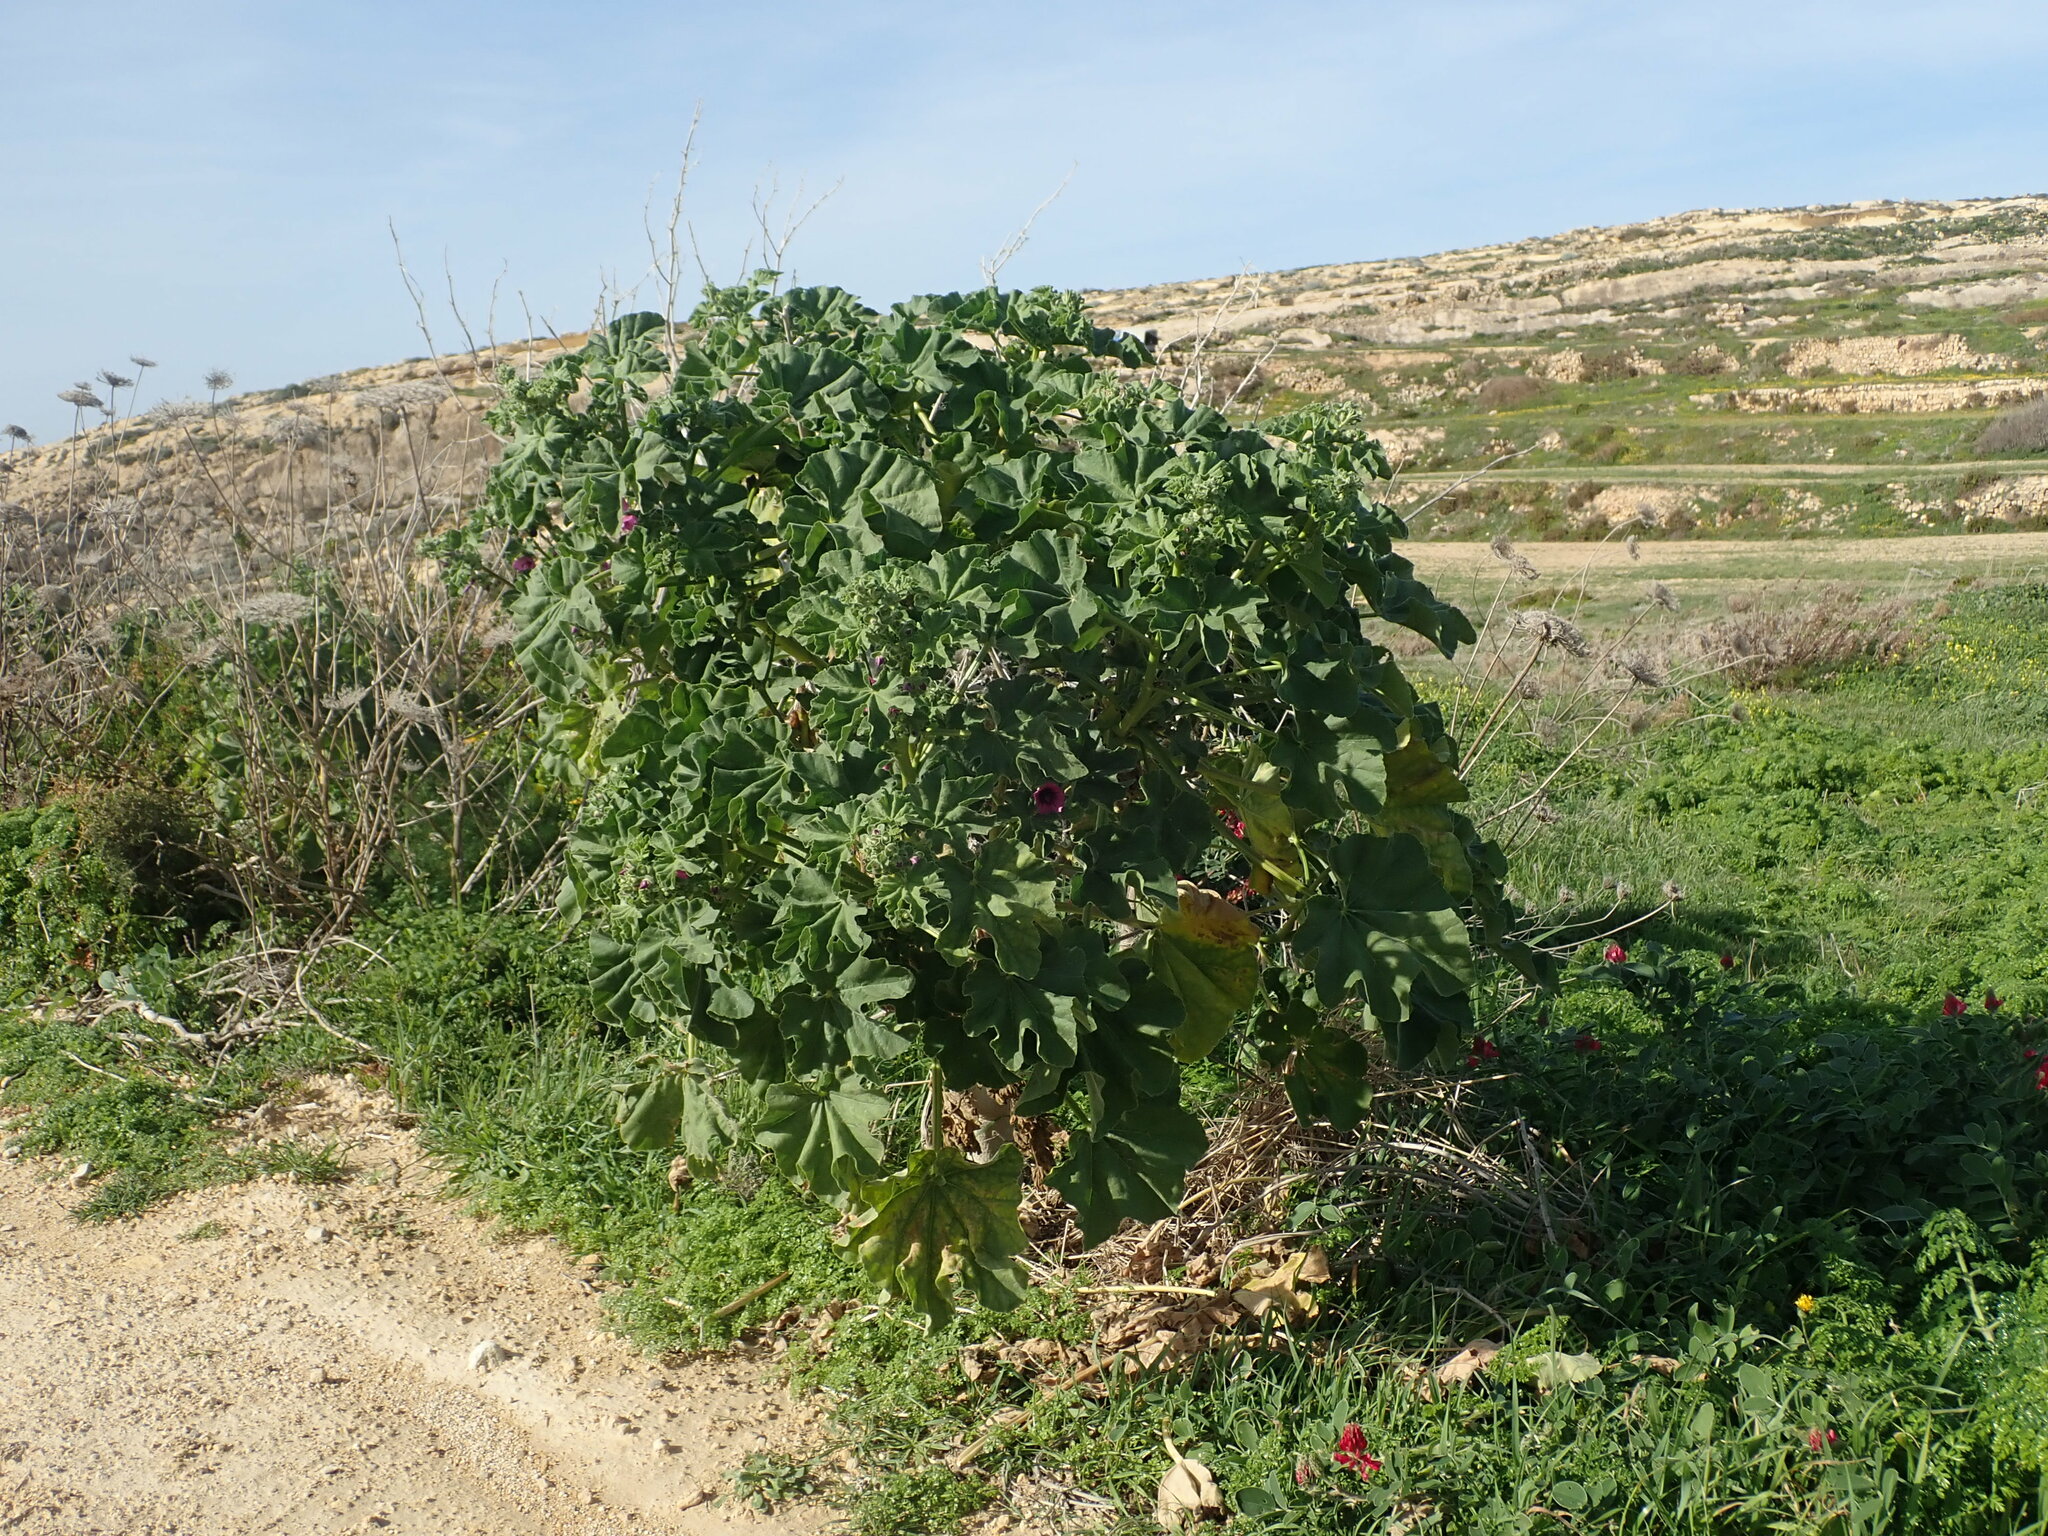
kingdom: Plantae
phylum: Tracheophyta
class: Magnoliopsida
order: Malvales
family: Malvaceae
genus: Malva
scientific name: Malva arborea
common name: Tree mallow
